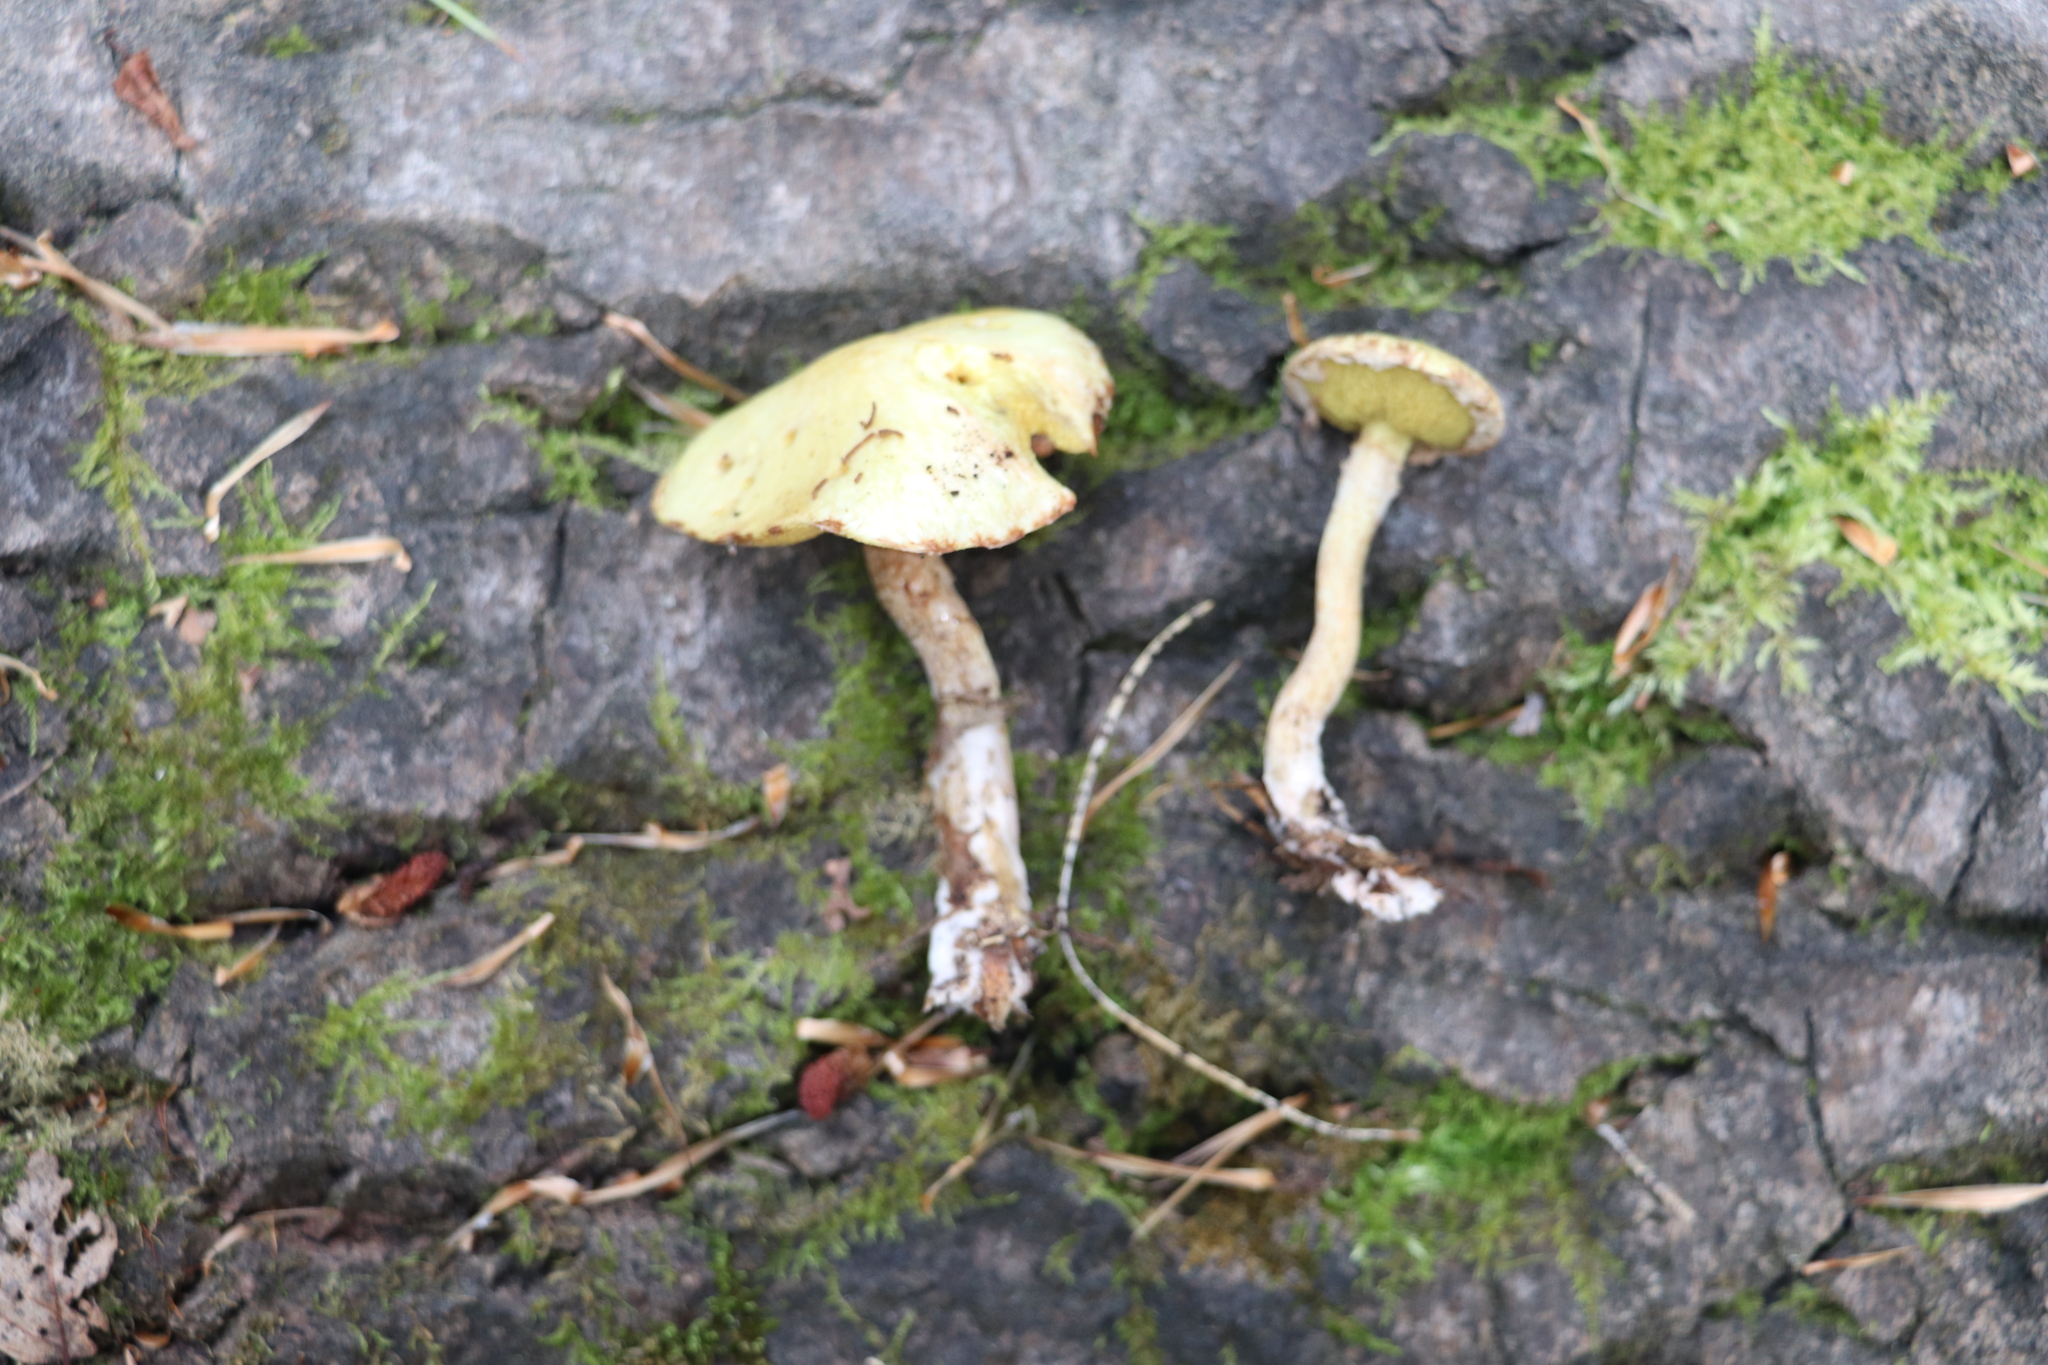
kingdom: Fungi
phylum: Basidiomycota
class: Agaricomycetes
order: Boletales
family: Suillaceae
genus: Suillus
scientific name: Suillus americanus
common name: Chicken fat mushroom
